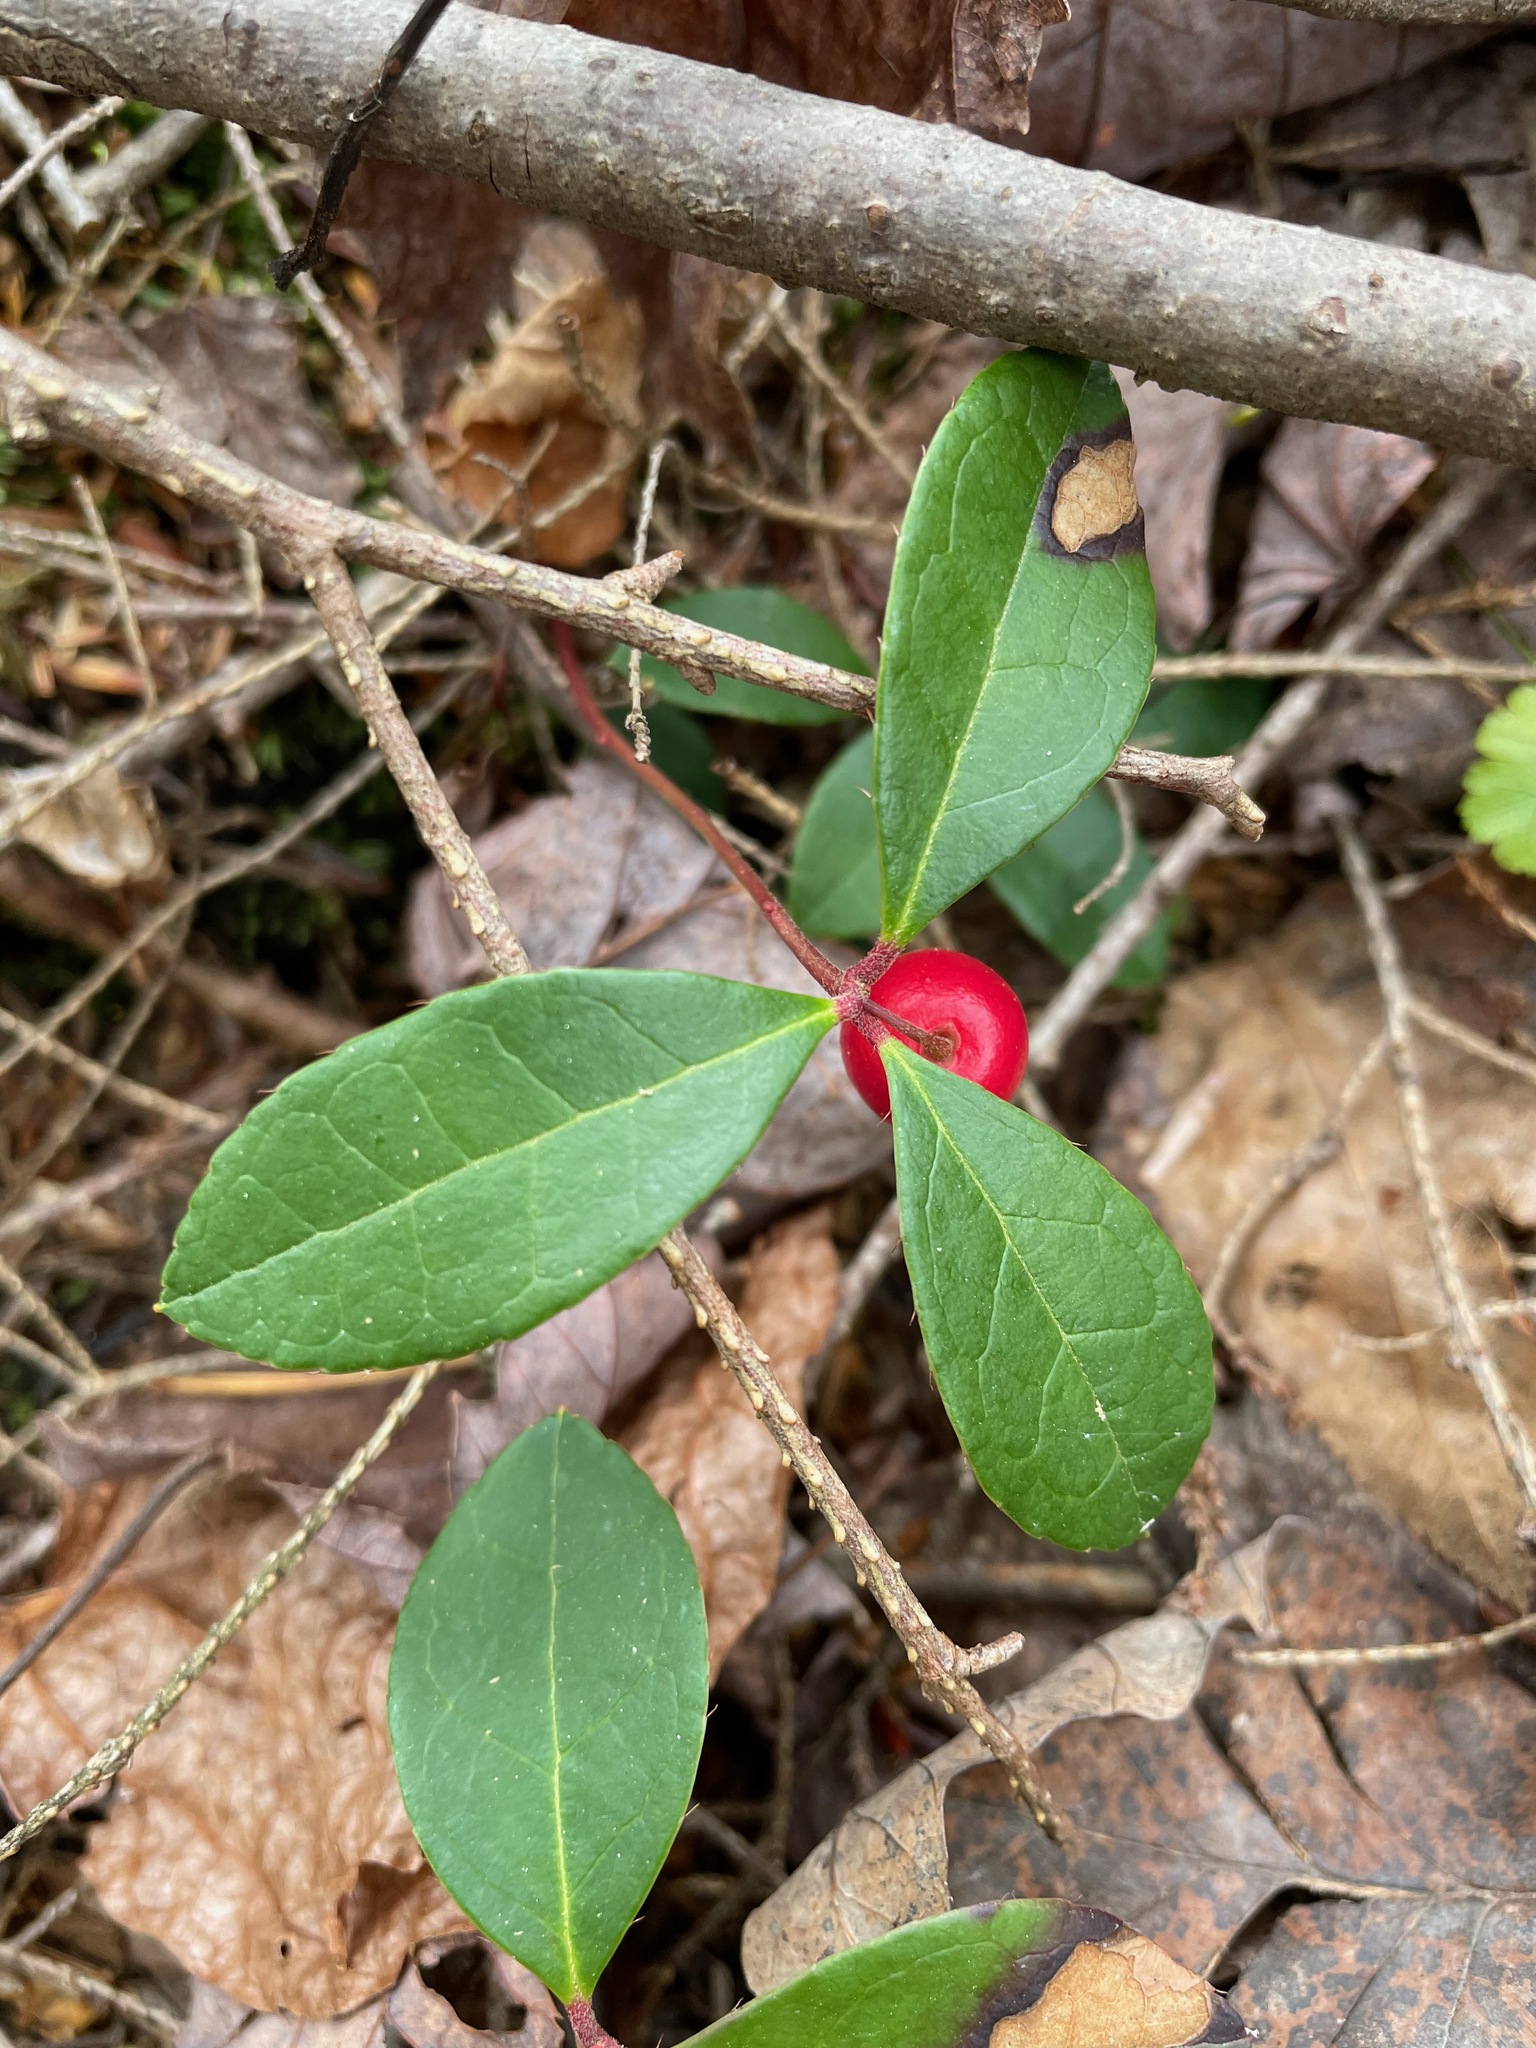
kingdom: Plantae
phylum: Tracheophyta
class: Magnoliopsida
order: Ericales
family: Ericaceae
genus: Gaultheria
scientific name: Gaultheria procumbens
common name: Checkerberry
